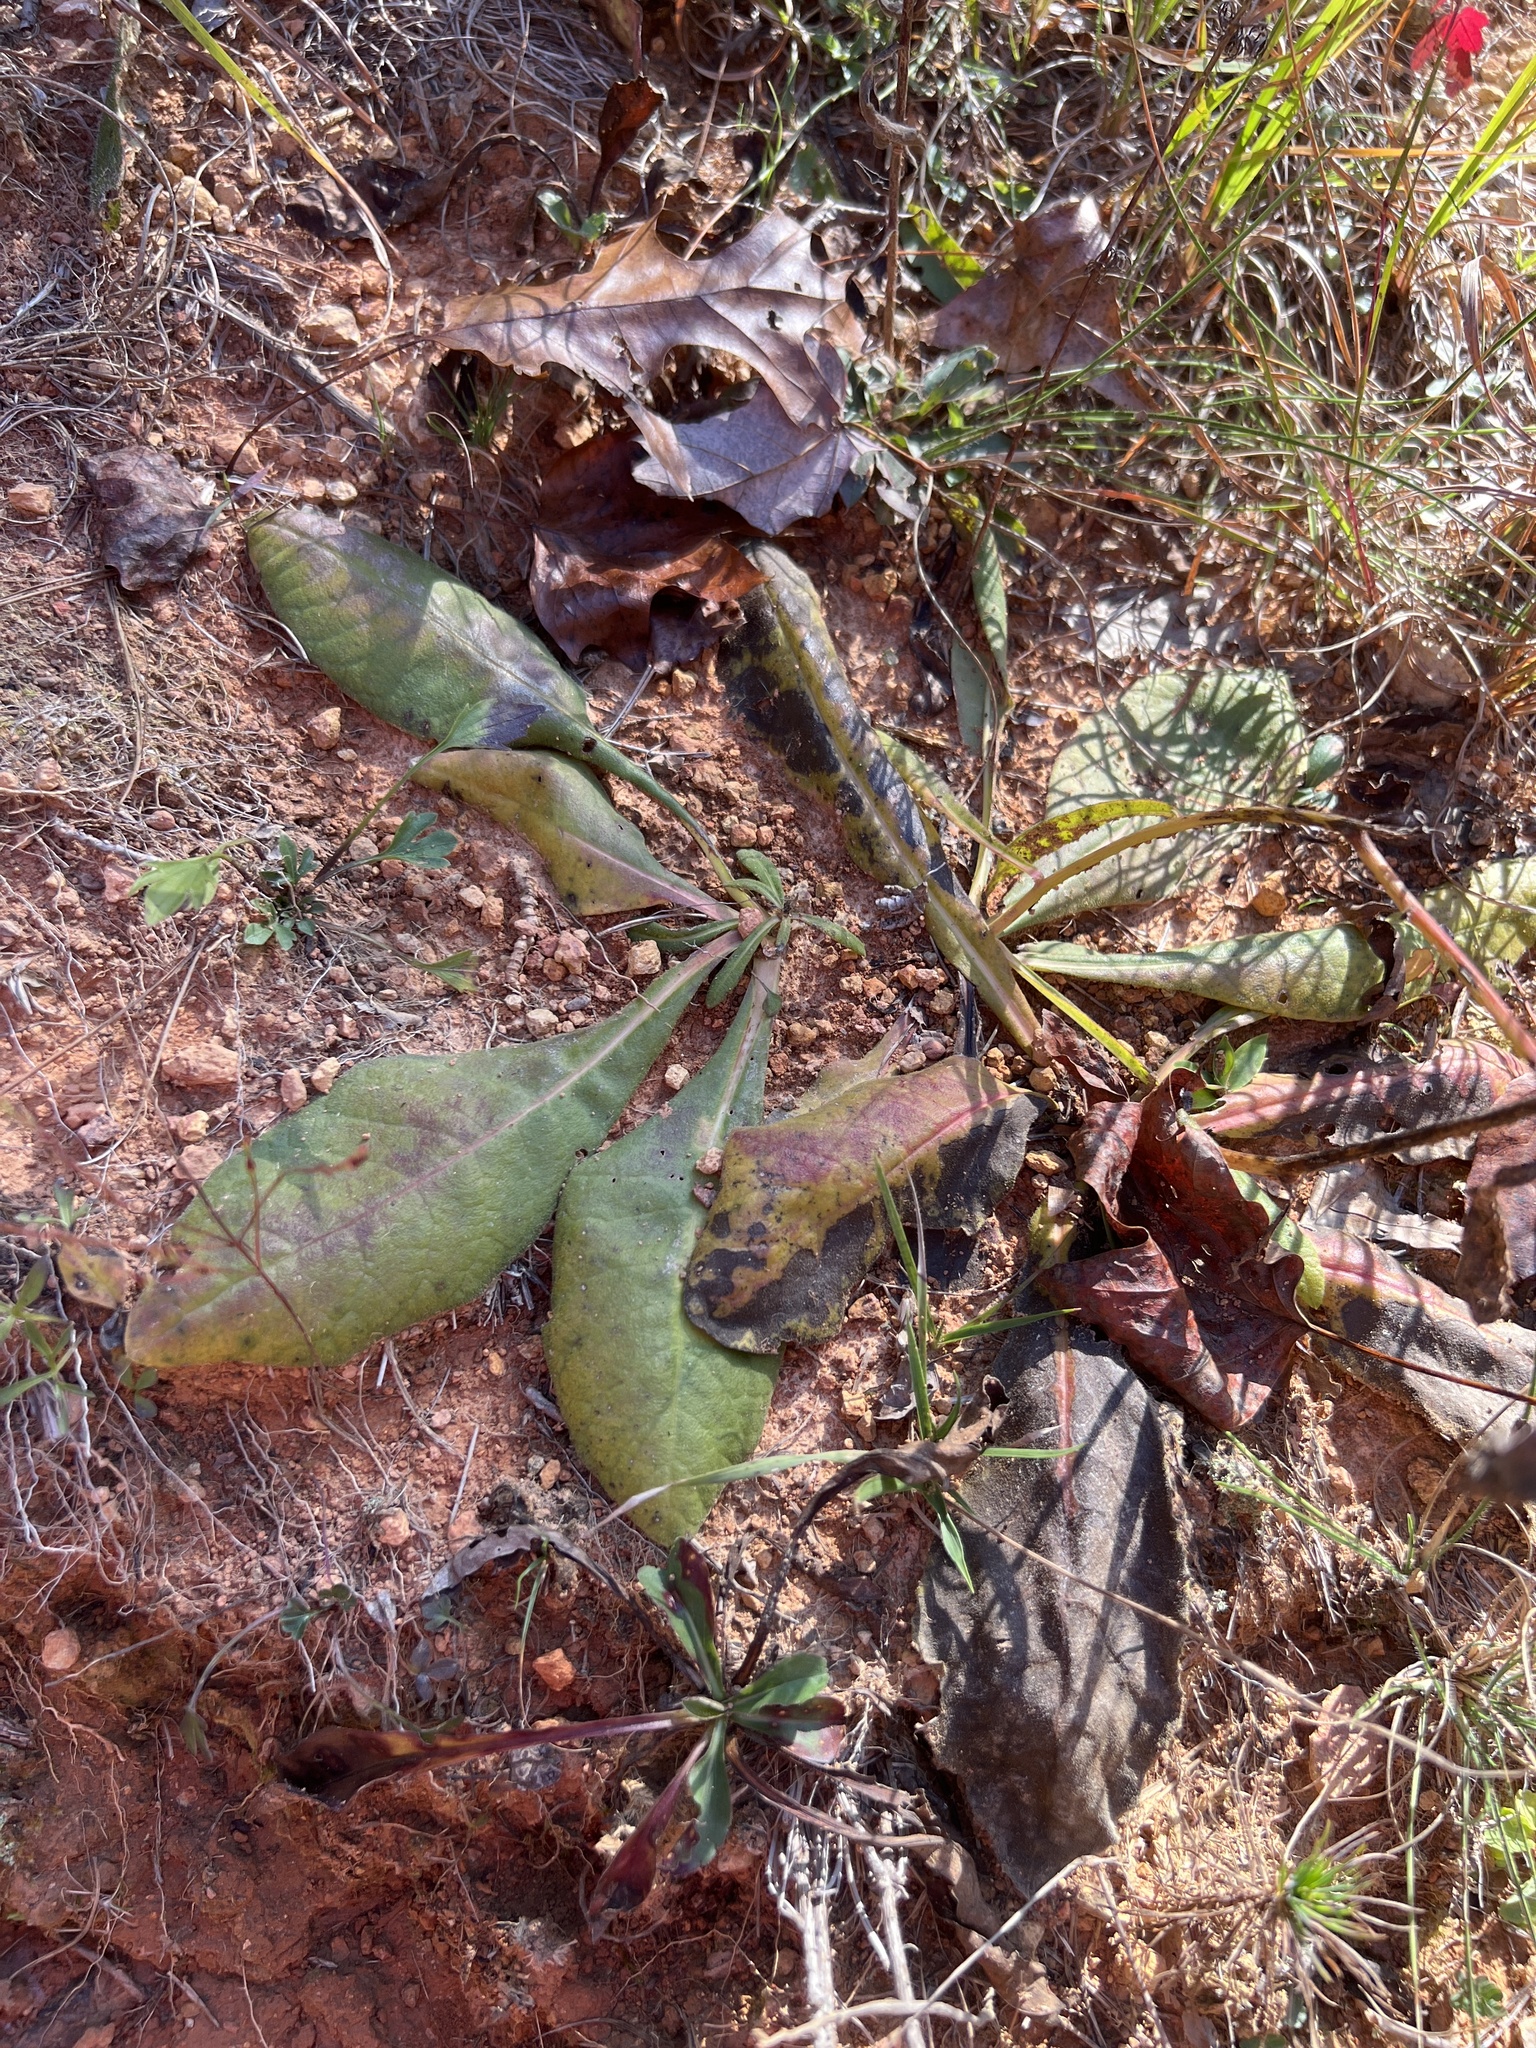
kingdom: Plantae
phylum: Tracheophyta
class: Magnoliopsida
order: Asterales
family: Asteraceae
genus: Vernonia
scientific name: Vernonia acaulis
